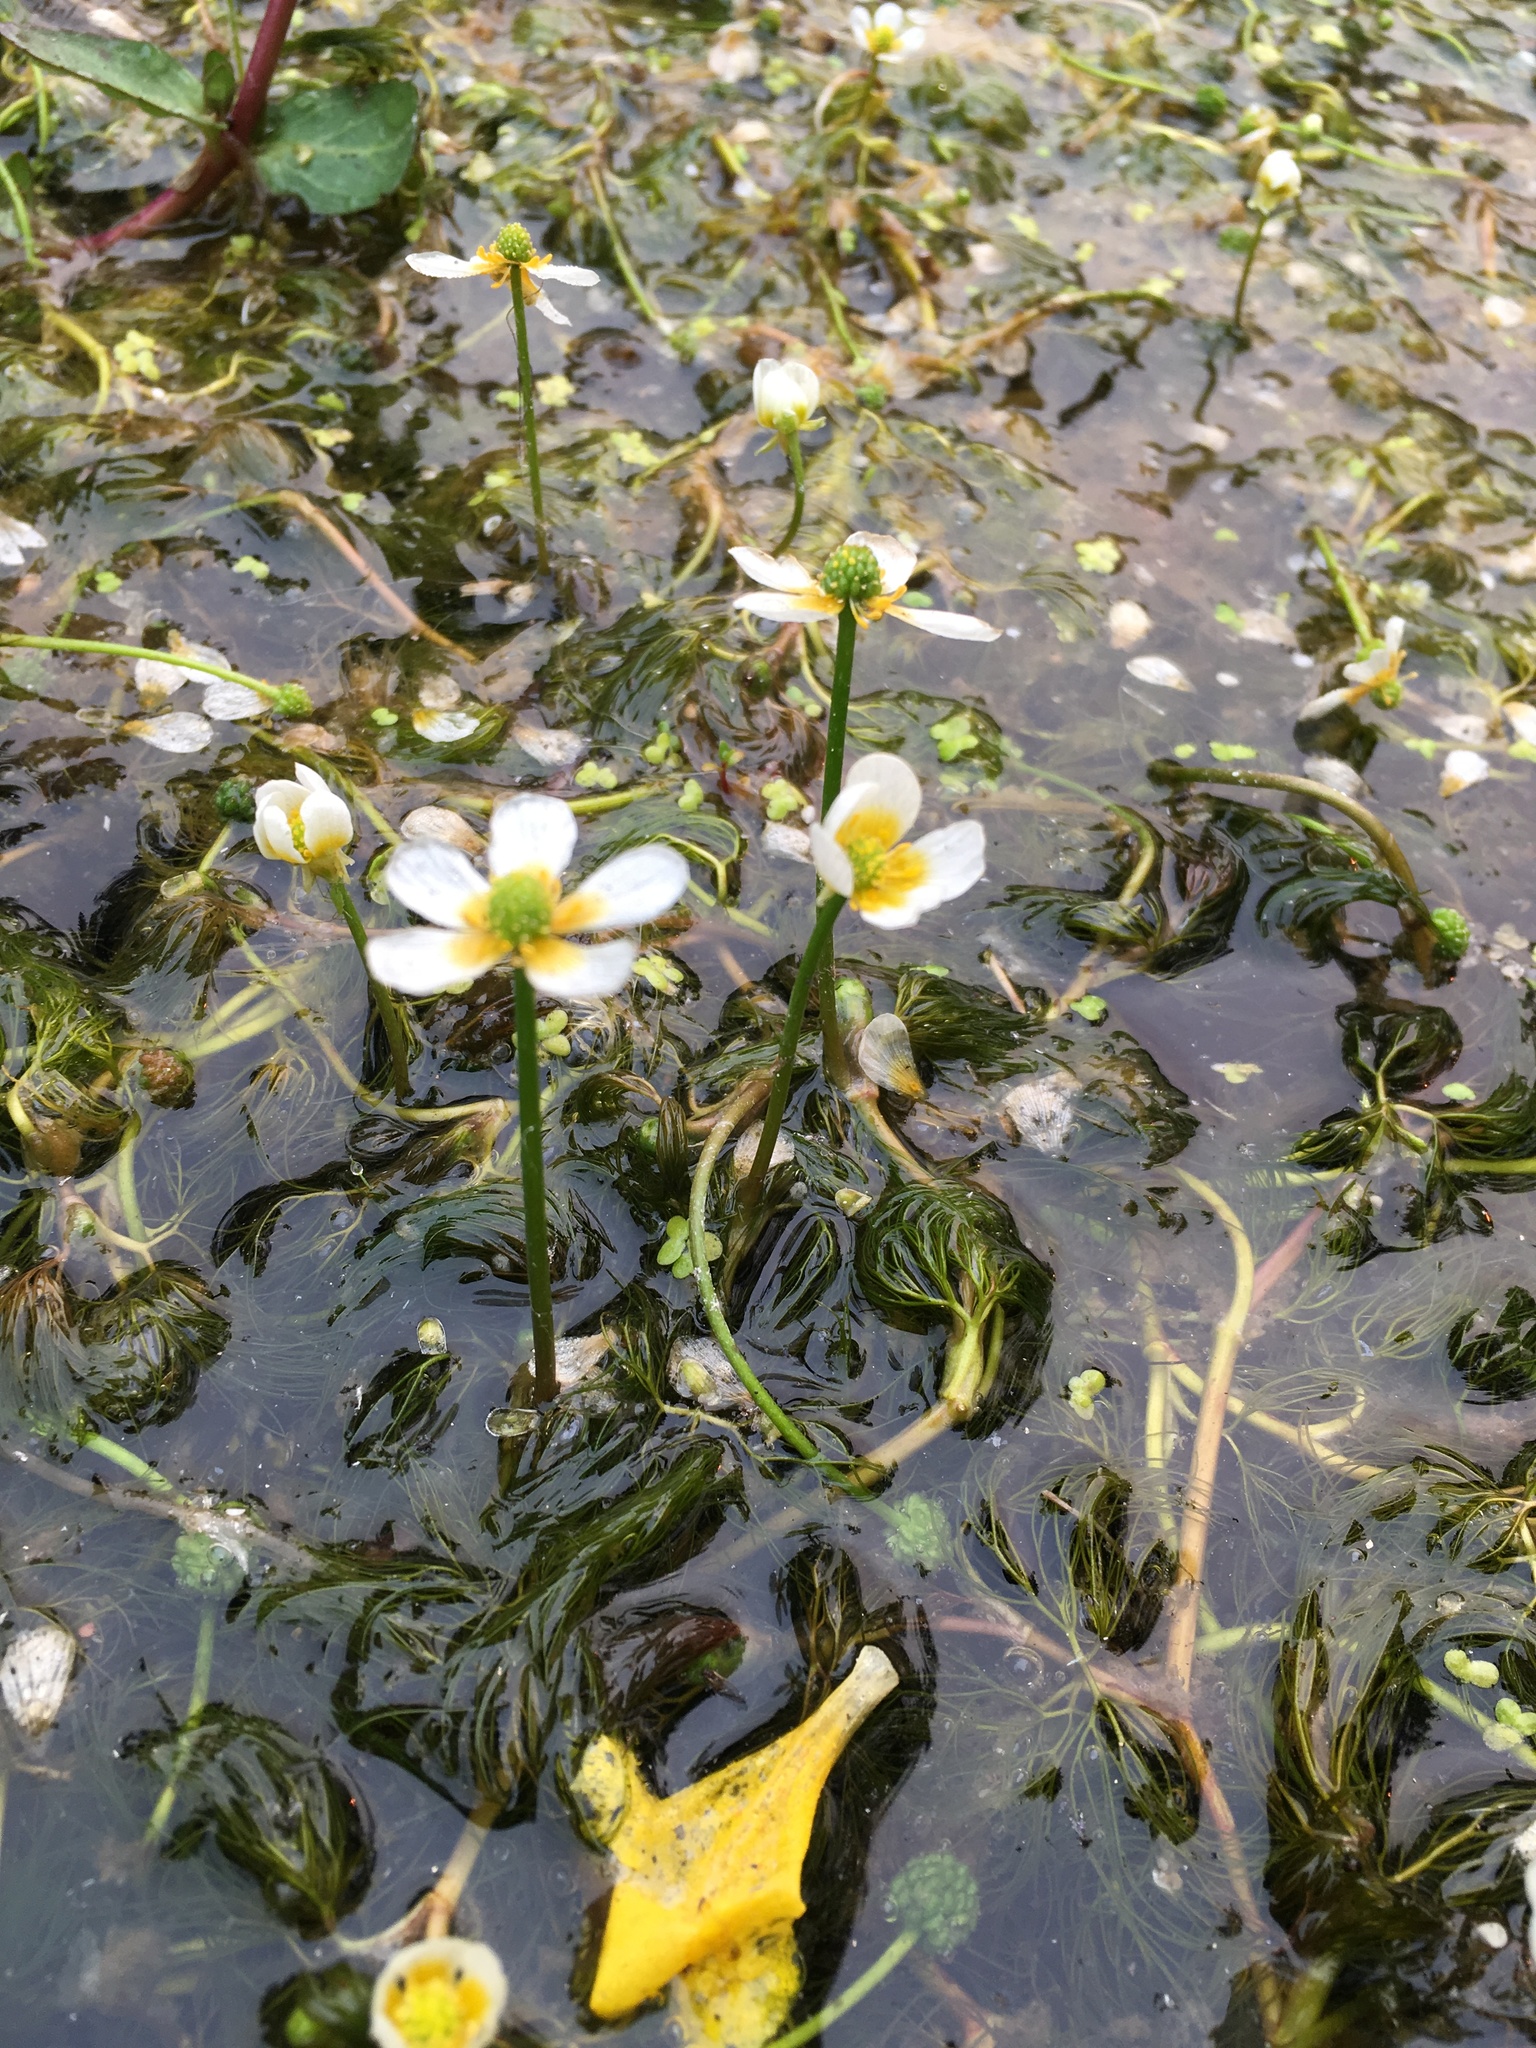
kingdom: Plantae
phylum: Tracheophyta
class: Magnoliopsida
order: Ranunculales
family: Ranunculaceae
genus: Ranunculus
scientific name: Ranunculus aquatilis
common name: Common water-crowfoot
